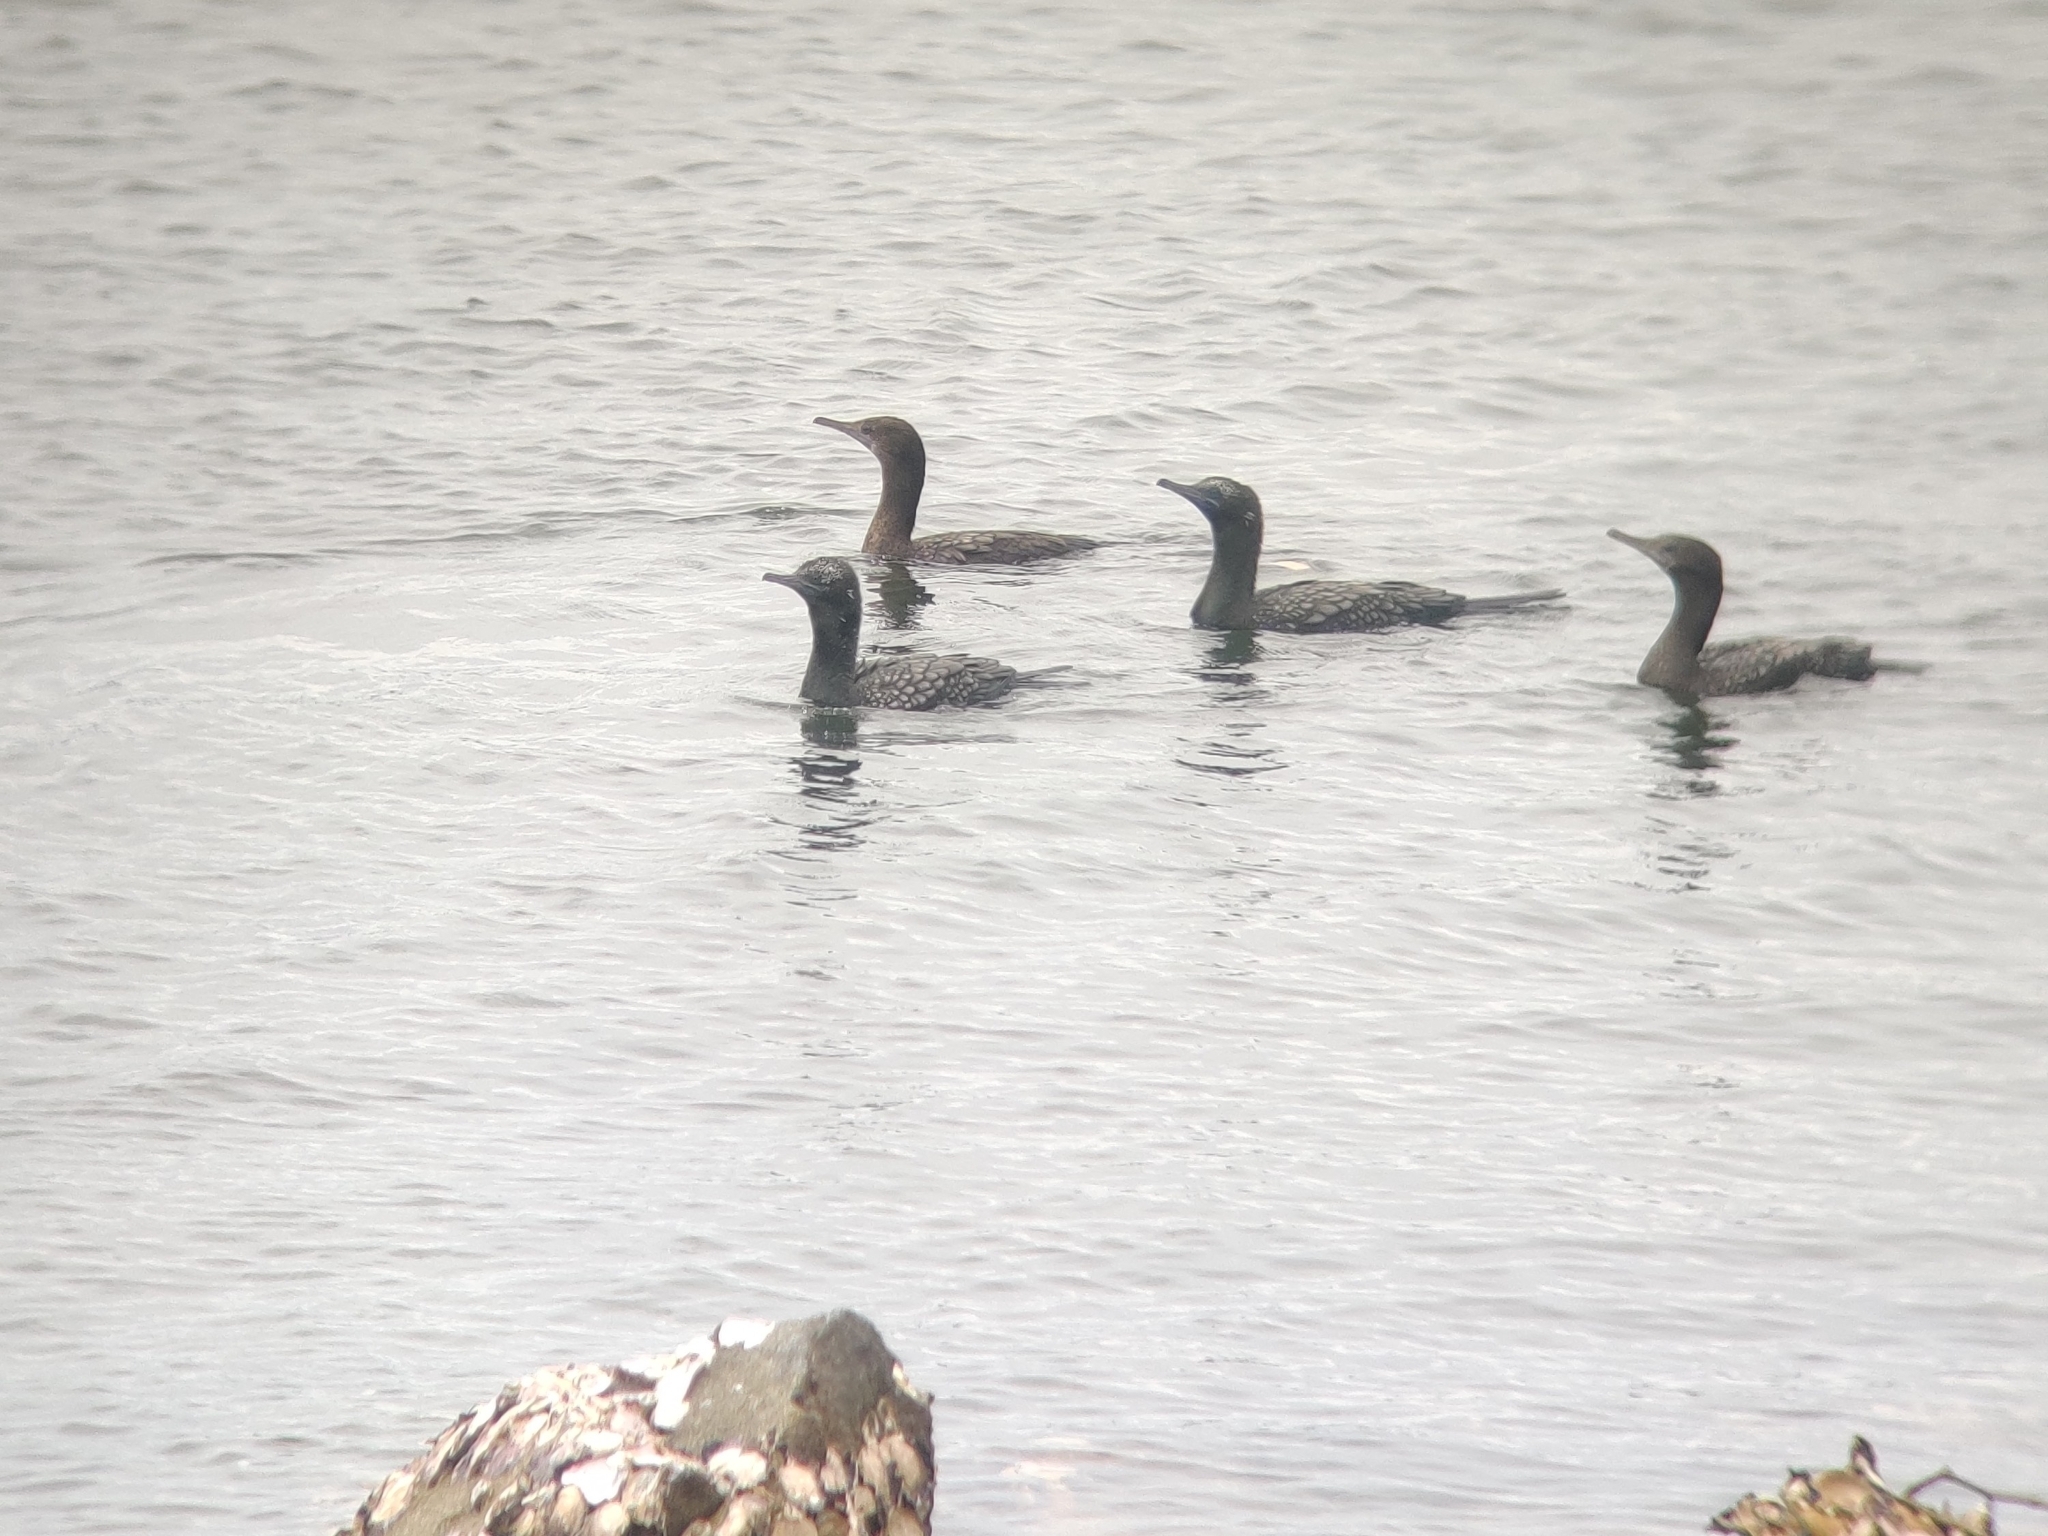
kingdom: Animalia
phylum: Chordata
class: Aves
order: Suliformes
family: Phalacrocoracidae
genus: Phalacrocorax
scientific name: Phalacrocorax sulcirostris
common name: Little black cormorant
